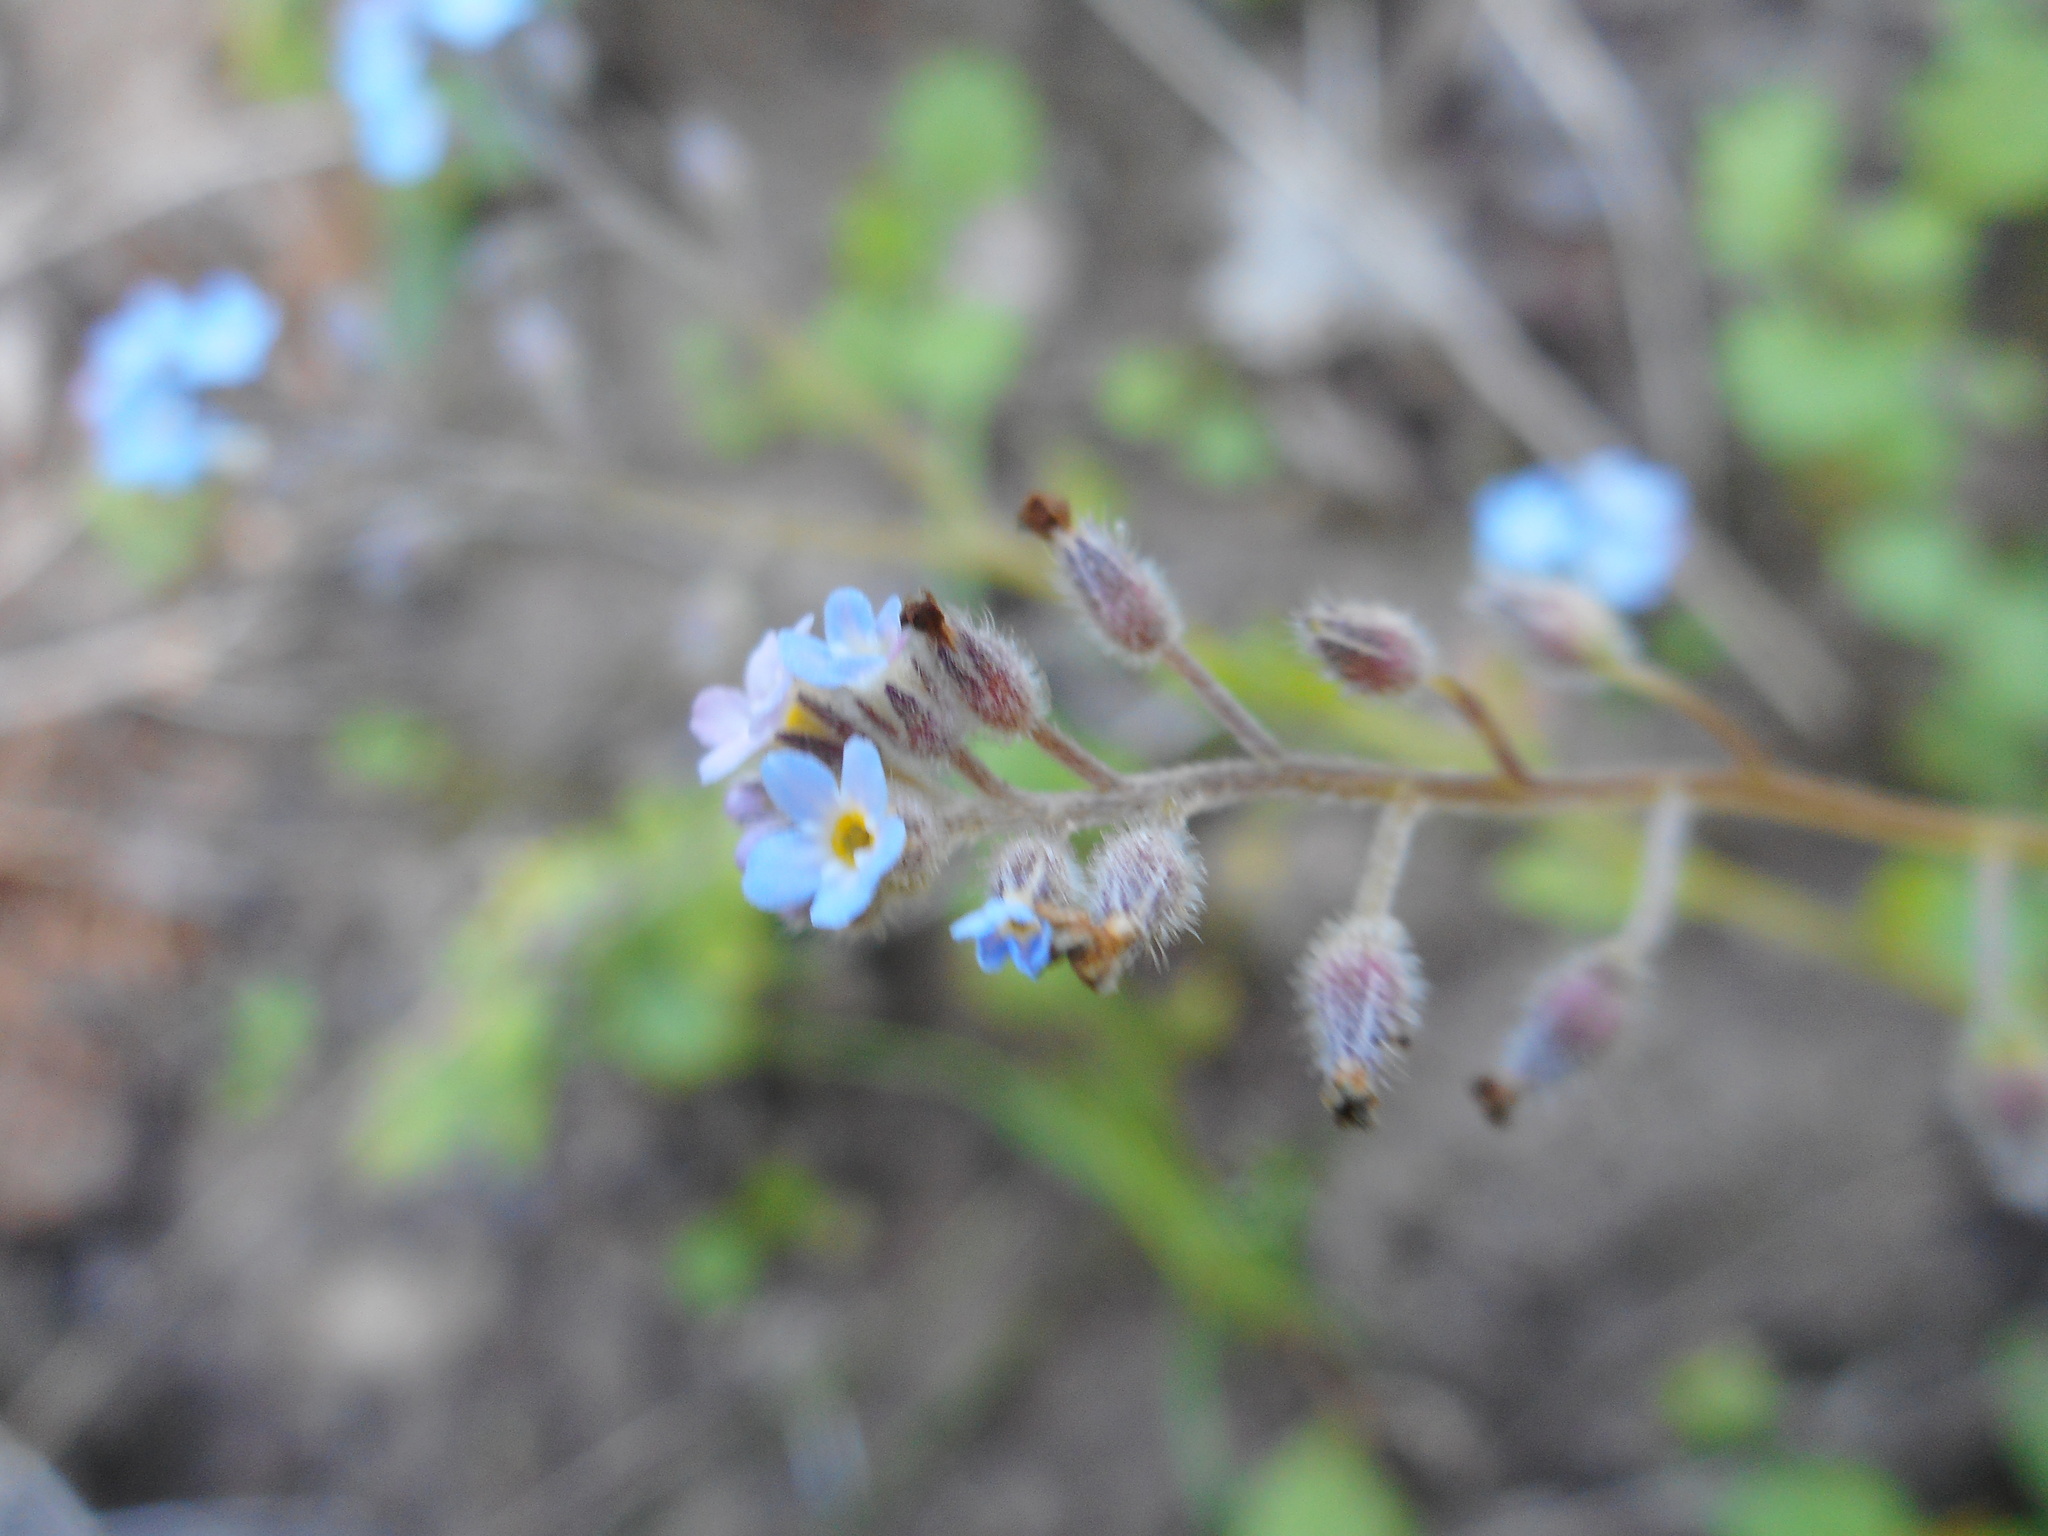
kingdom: Plantae
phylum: Tracheophyta
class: Magnoliopsida
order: Boraginales
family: Boraginaceae
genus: Myosotis
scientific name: Myosotis arvensis
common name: Field forget-me-not
